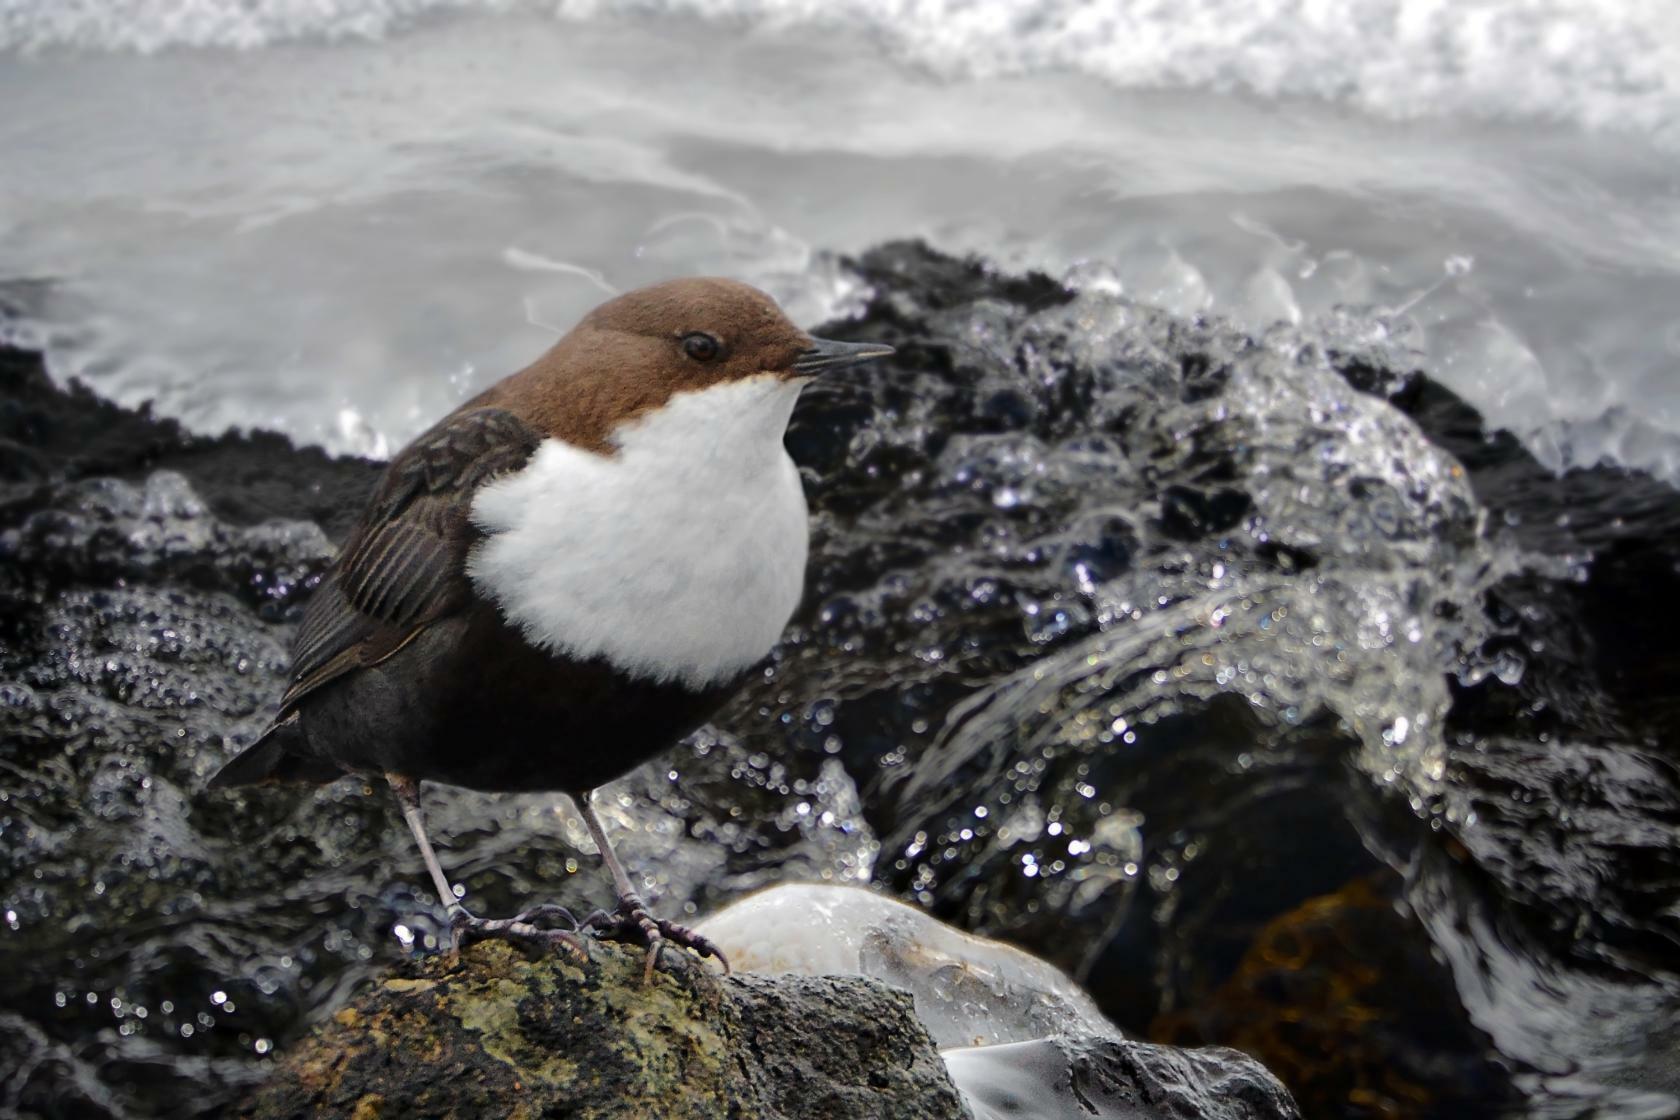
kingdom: Animalia
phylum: Chordata
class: Aves
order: Passeriformes
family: Cinclidae
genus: Cinclus
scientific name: Cinclus cinclus
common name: White-throated dipper
